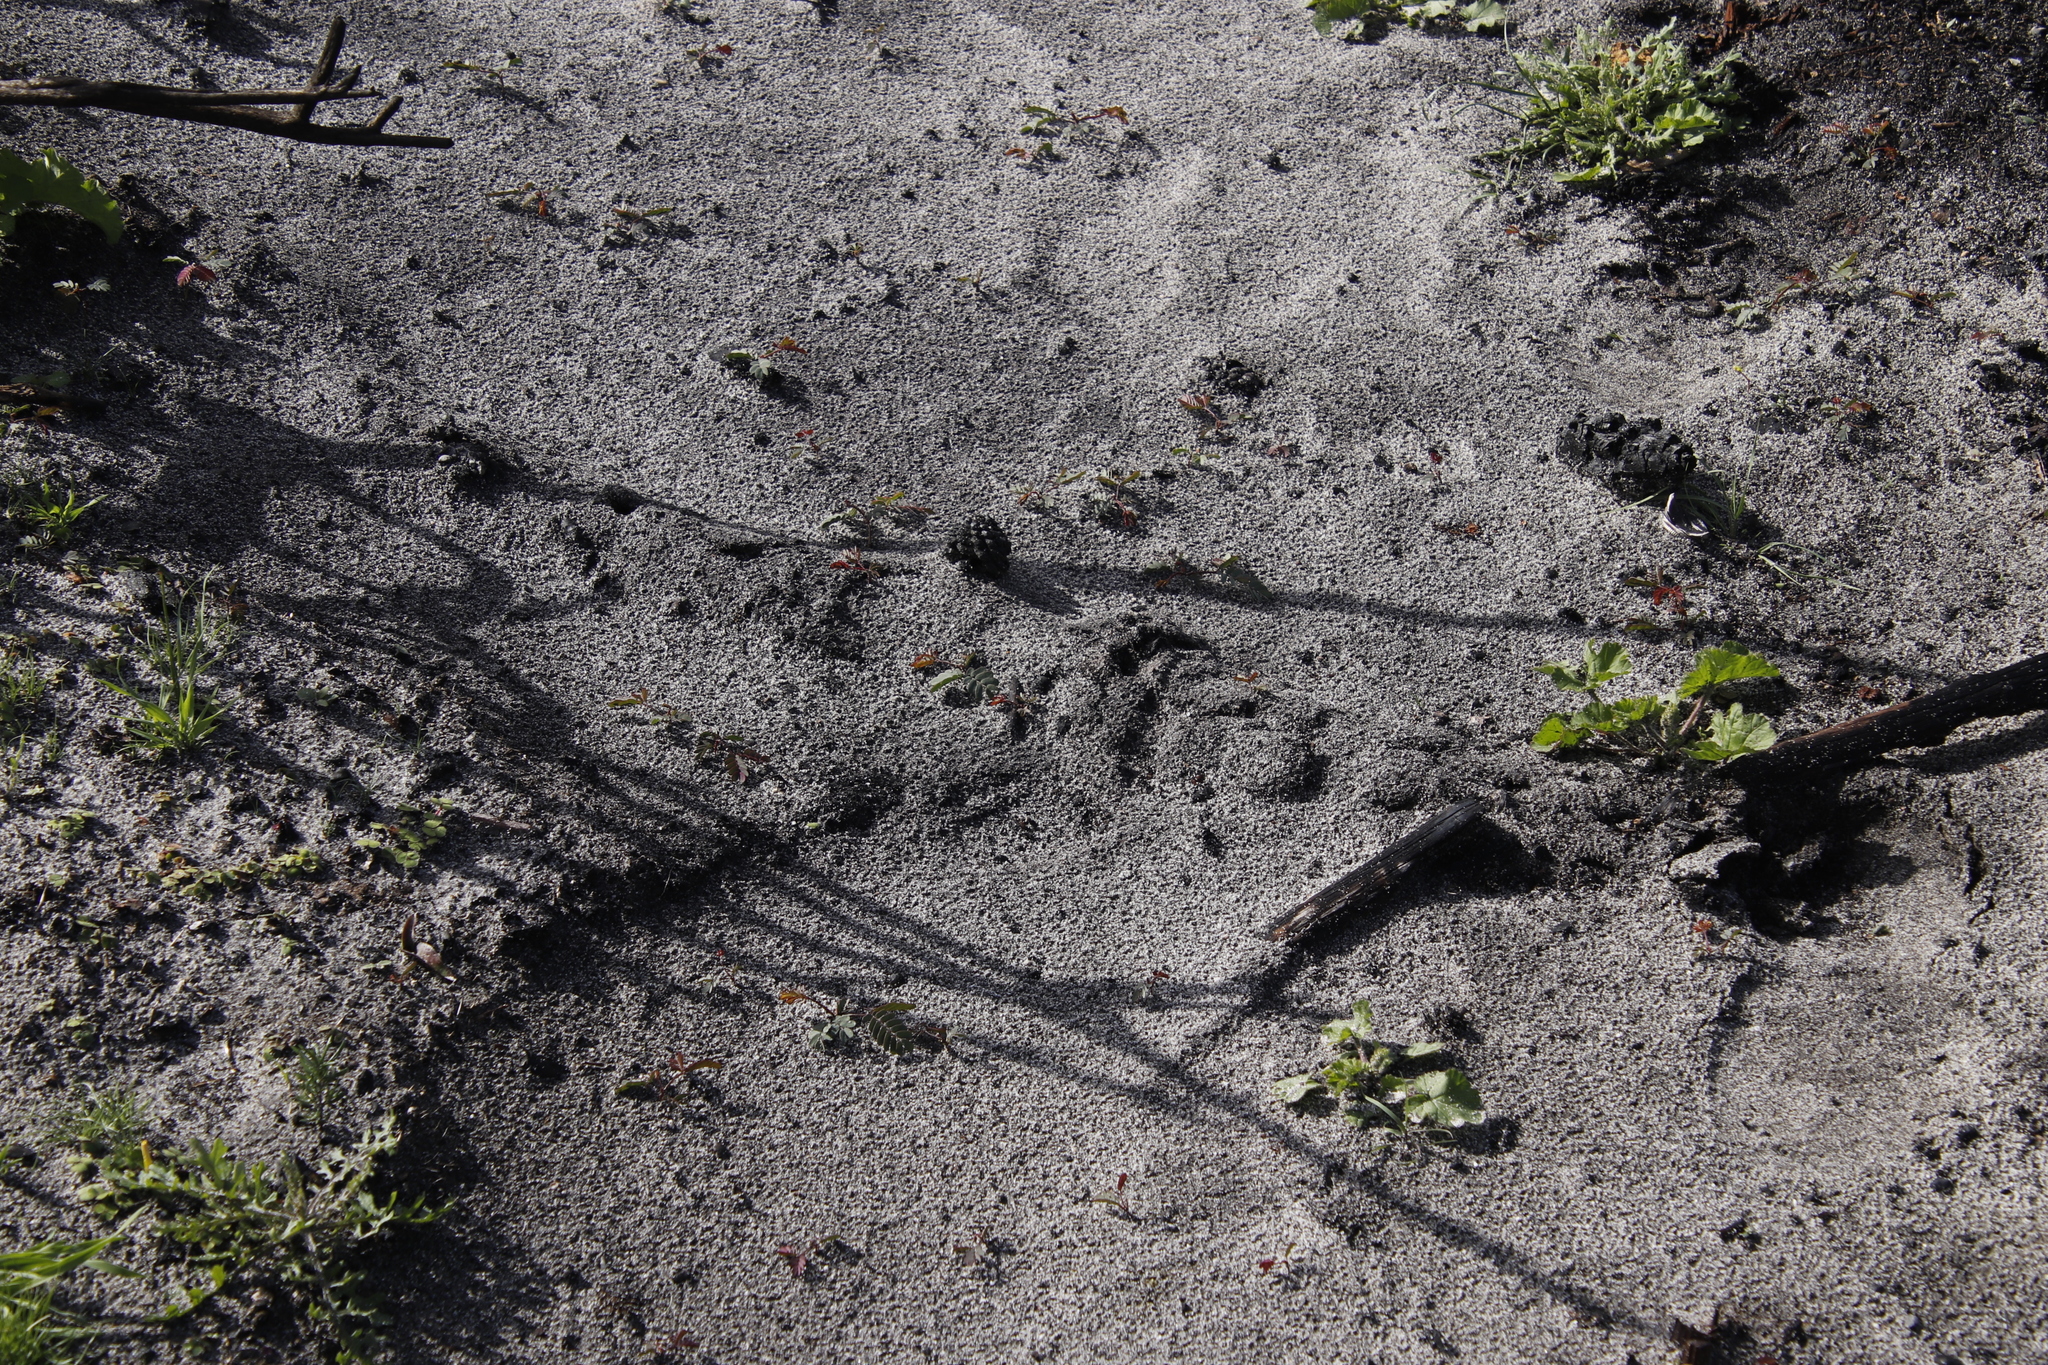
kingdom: Animalia
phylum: Chordata
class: Mammalia
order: Afrosoricida
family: Chrysochloridae
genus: Chrysochloris
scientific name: Chrysochloris asiatica
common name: Cape golden mole
